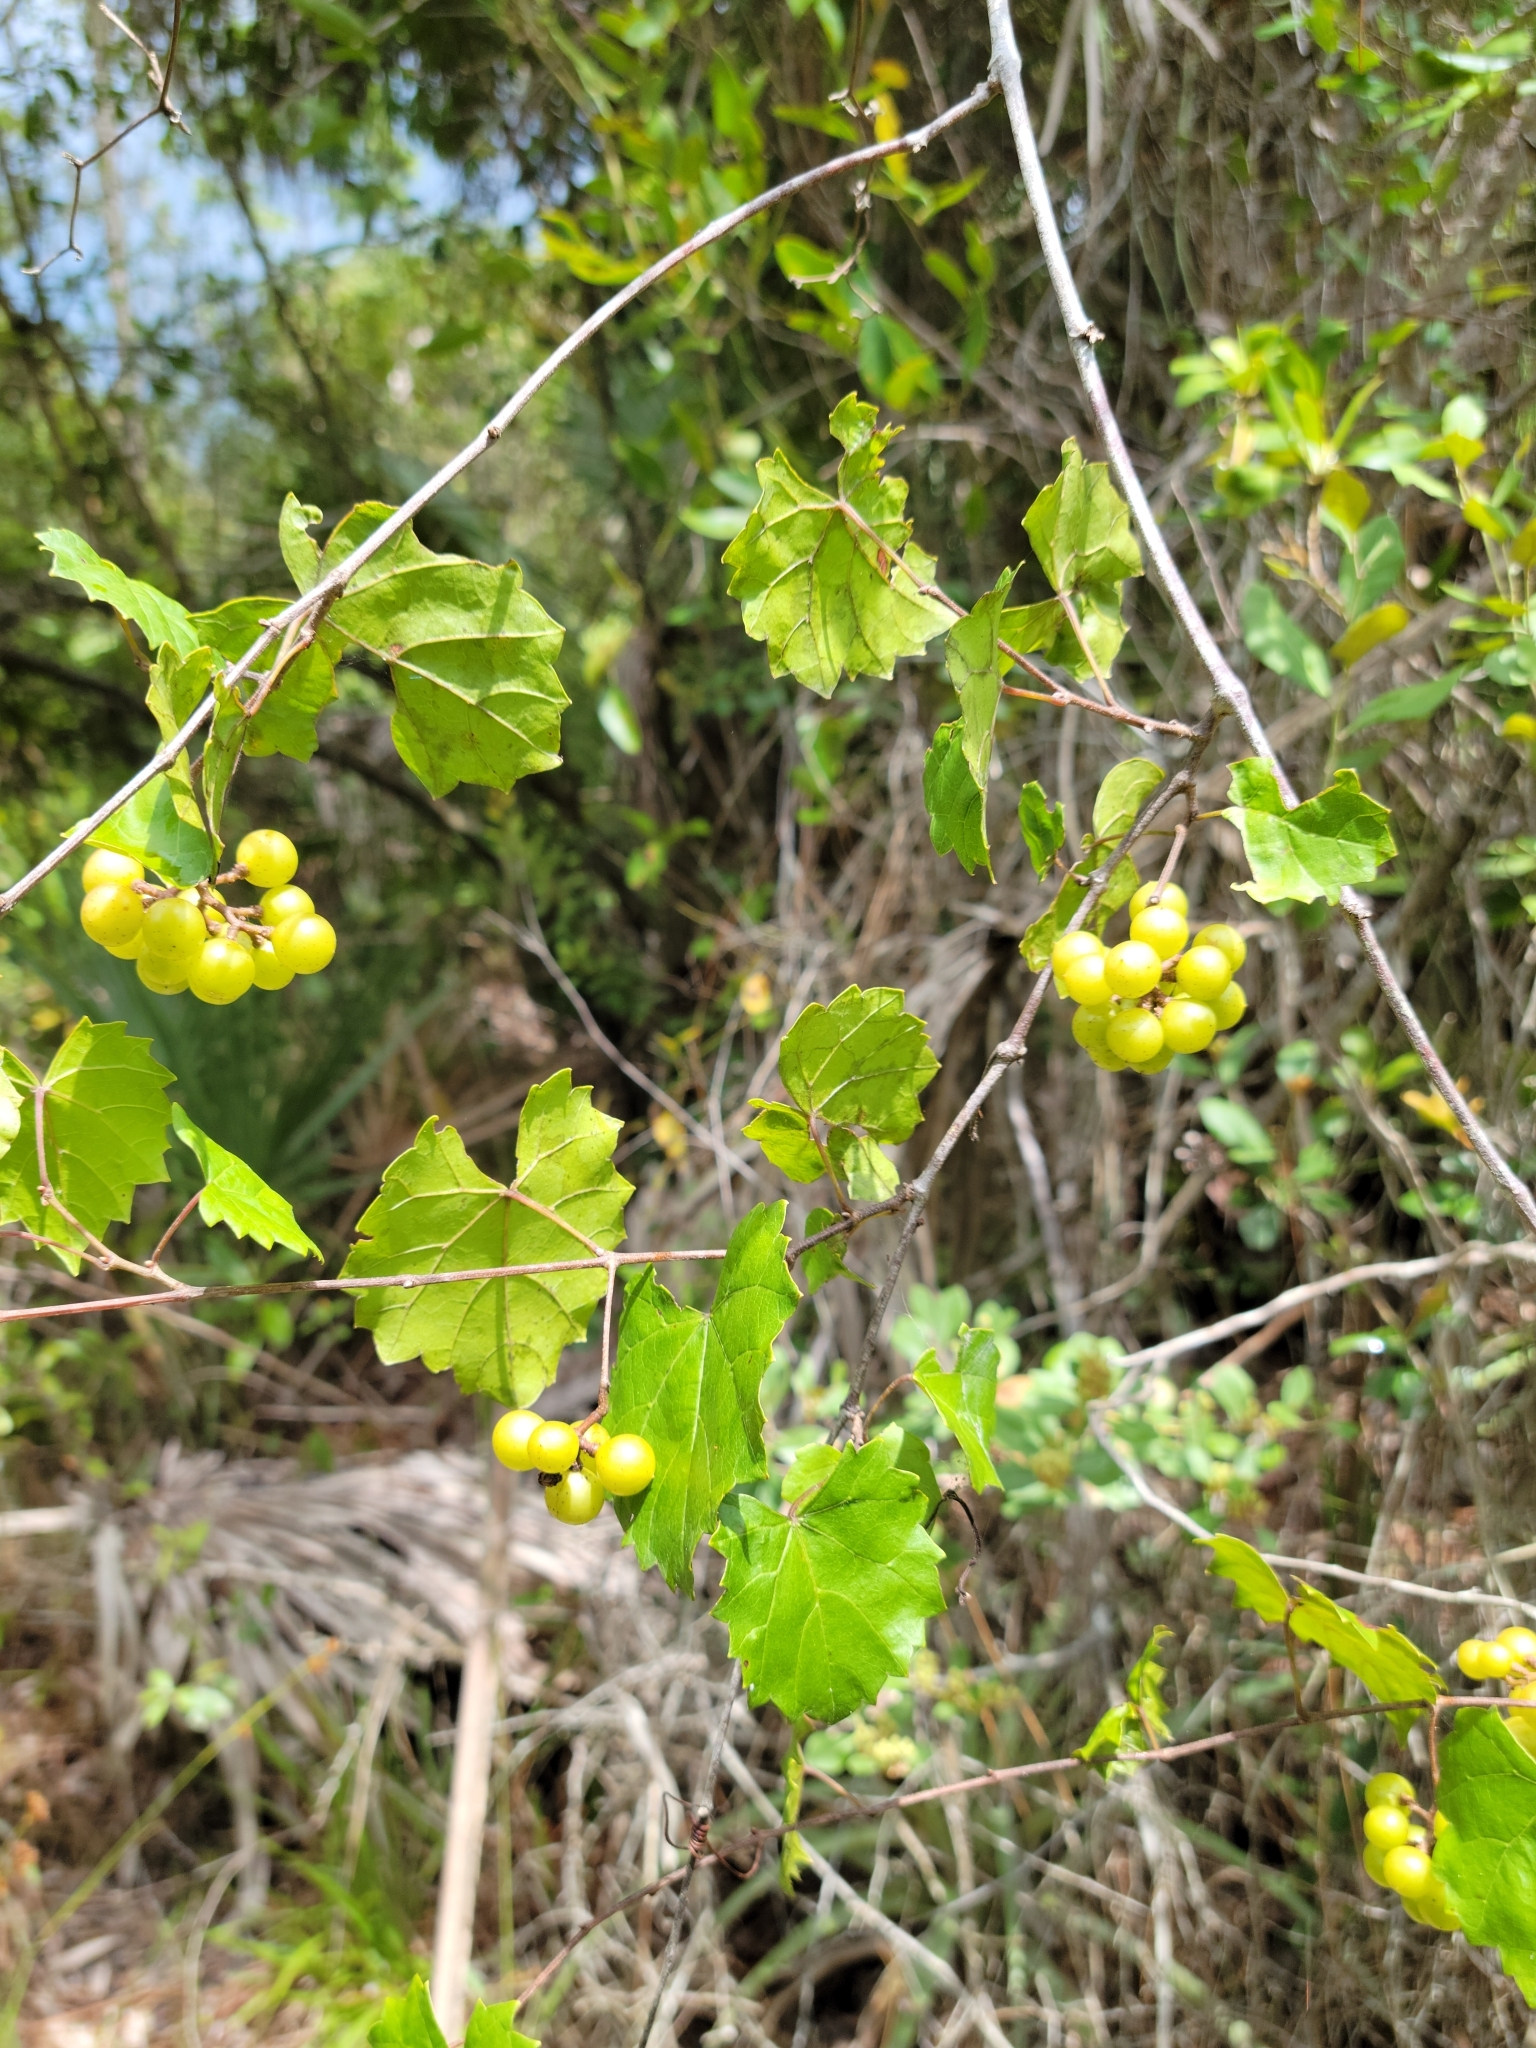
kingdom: Plantae
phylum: Tracheophyta
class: Magnoliopsida
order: Vitales
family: Vitaceae
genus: Vitis
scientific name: Vitis rotundifolia
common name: Muscadine grape
